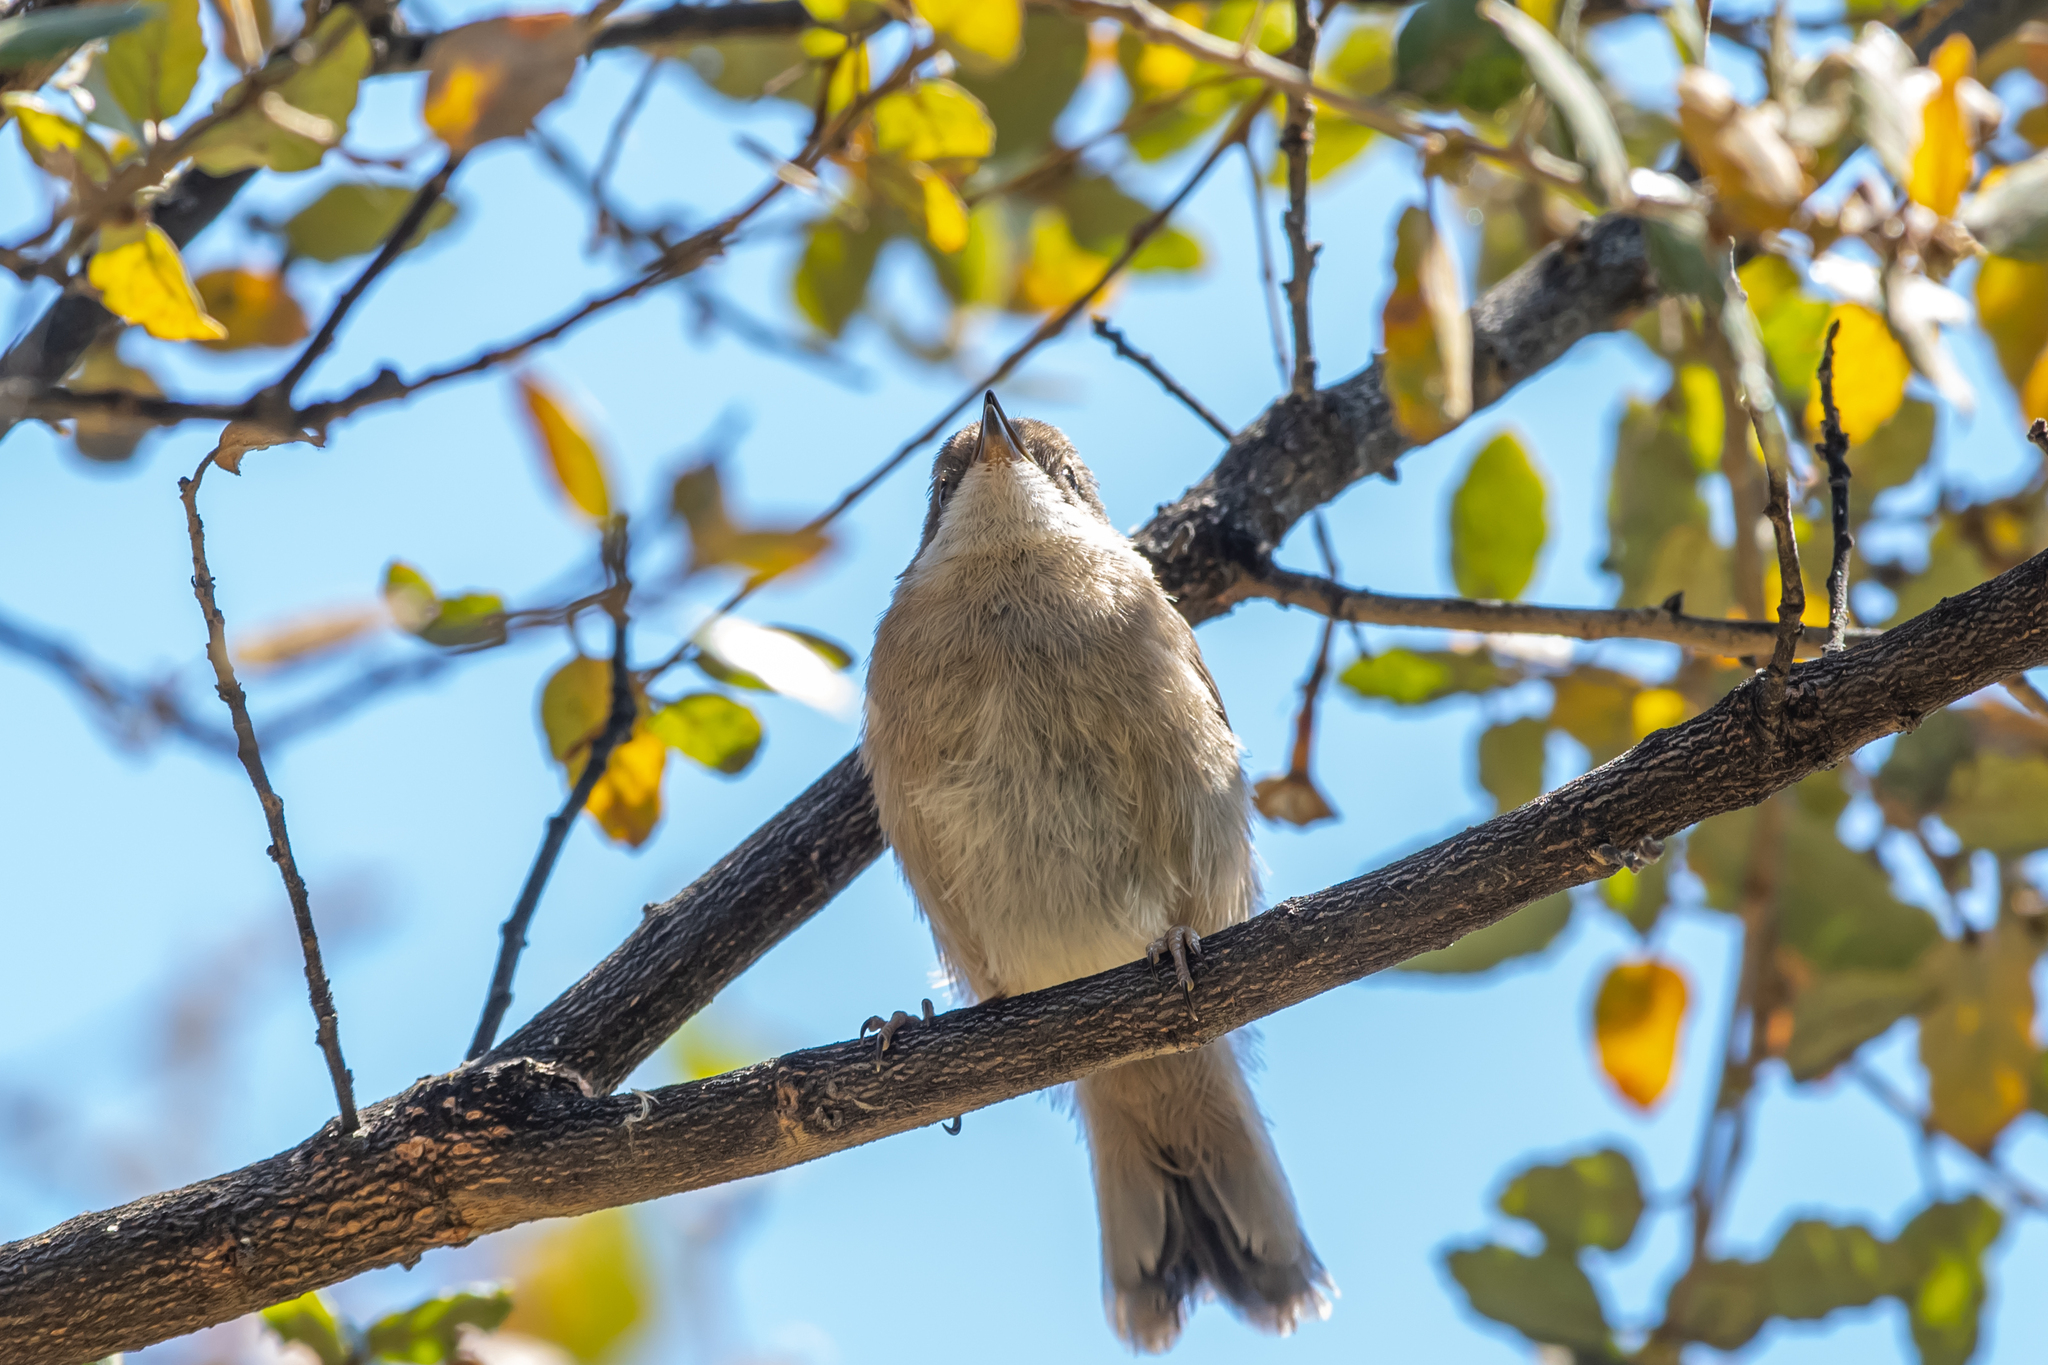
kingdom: Animalia
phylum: Chordata
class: Aves
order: Passeriformes
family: Sylviidae
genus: Curruca
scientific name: Curruca melanocephala
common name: Sardinian warbler
